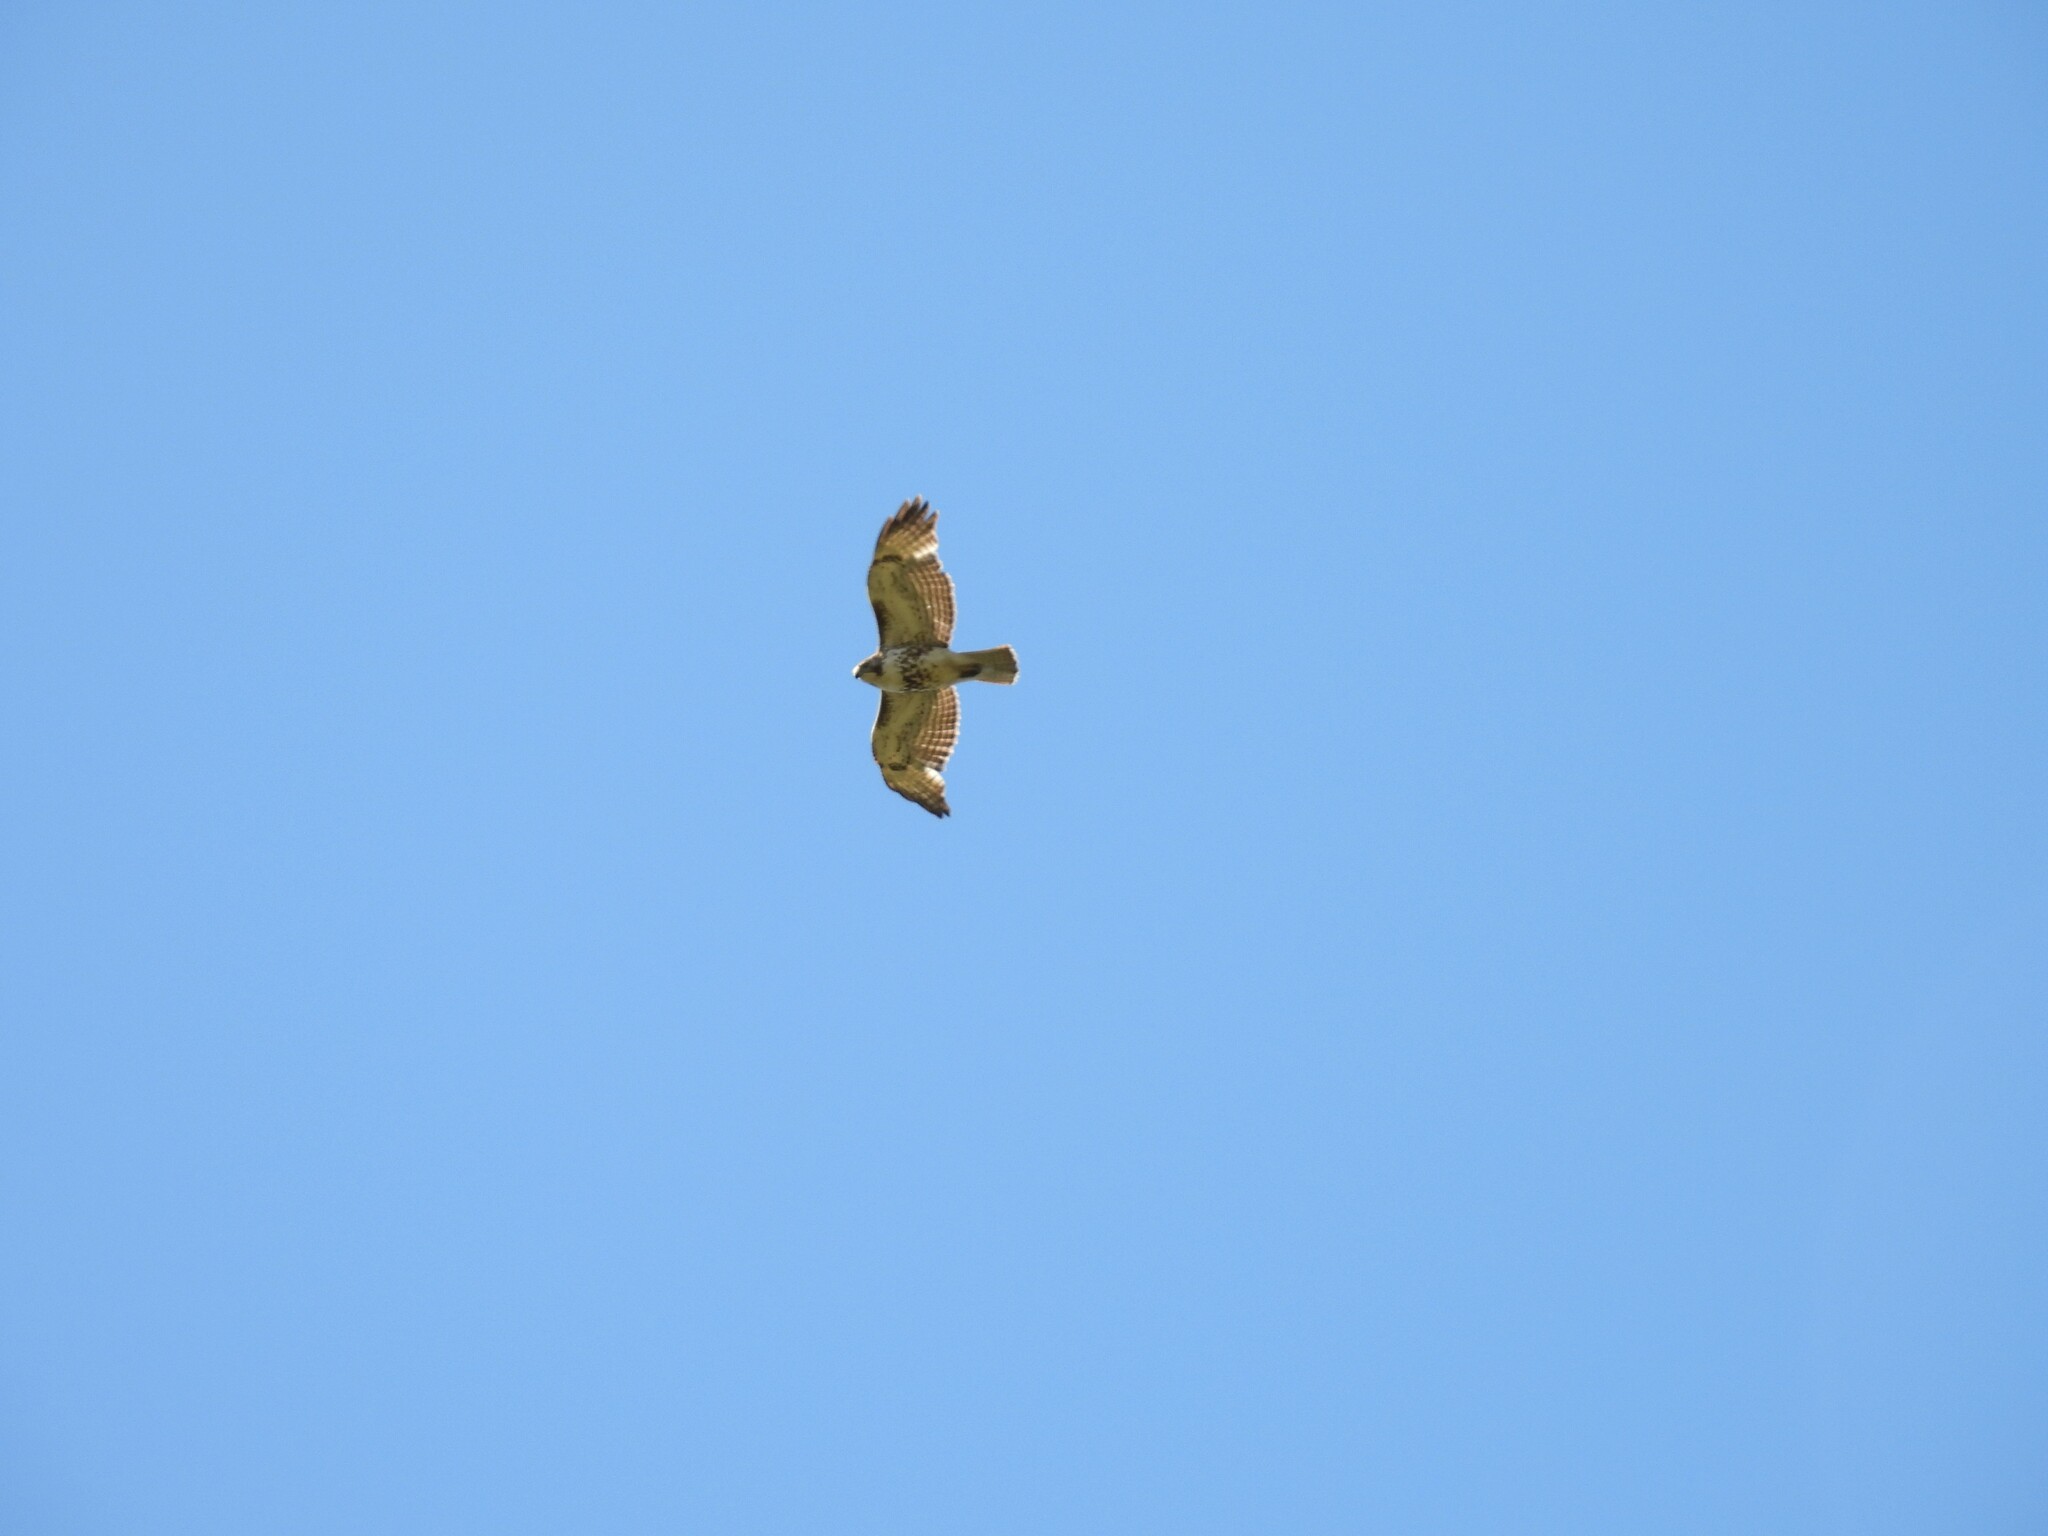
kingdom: Animalia
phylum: Chordata
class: Aves
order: Accipitriformes
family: Accipitridae
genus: Buteo
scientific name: Buteo jamaicensis
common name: Red-tailed hawk
